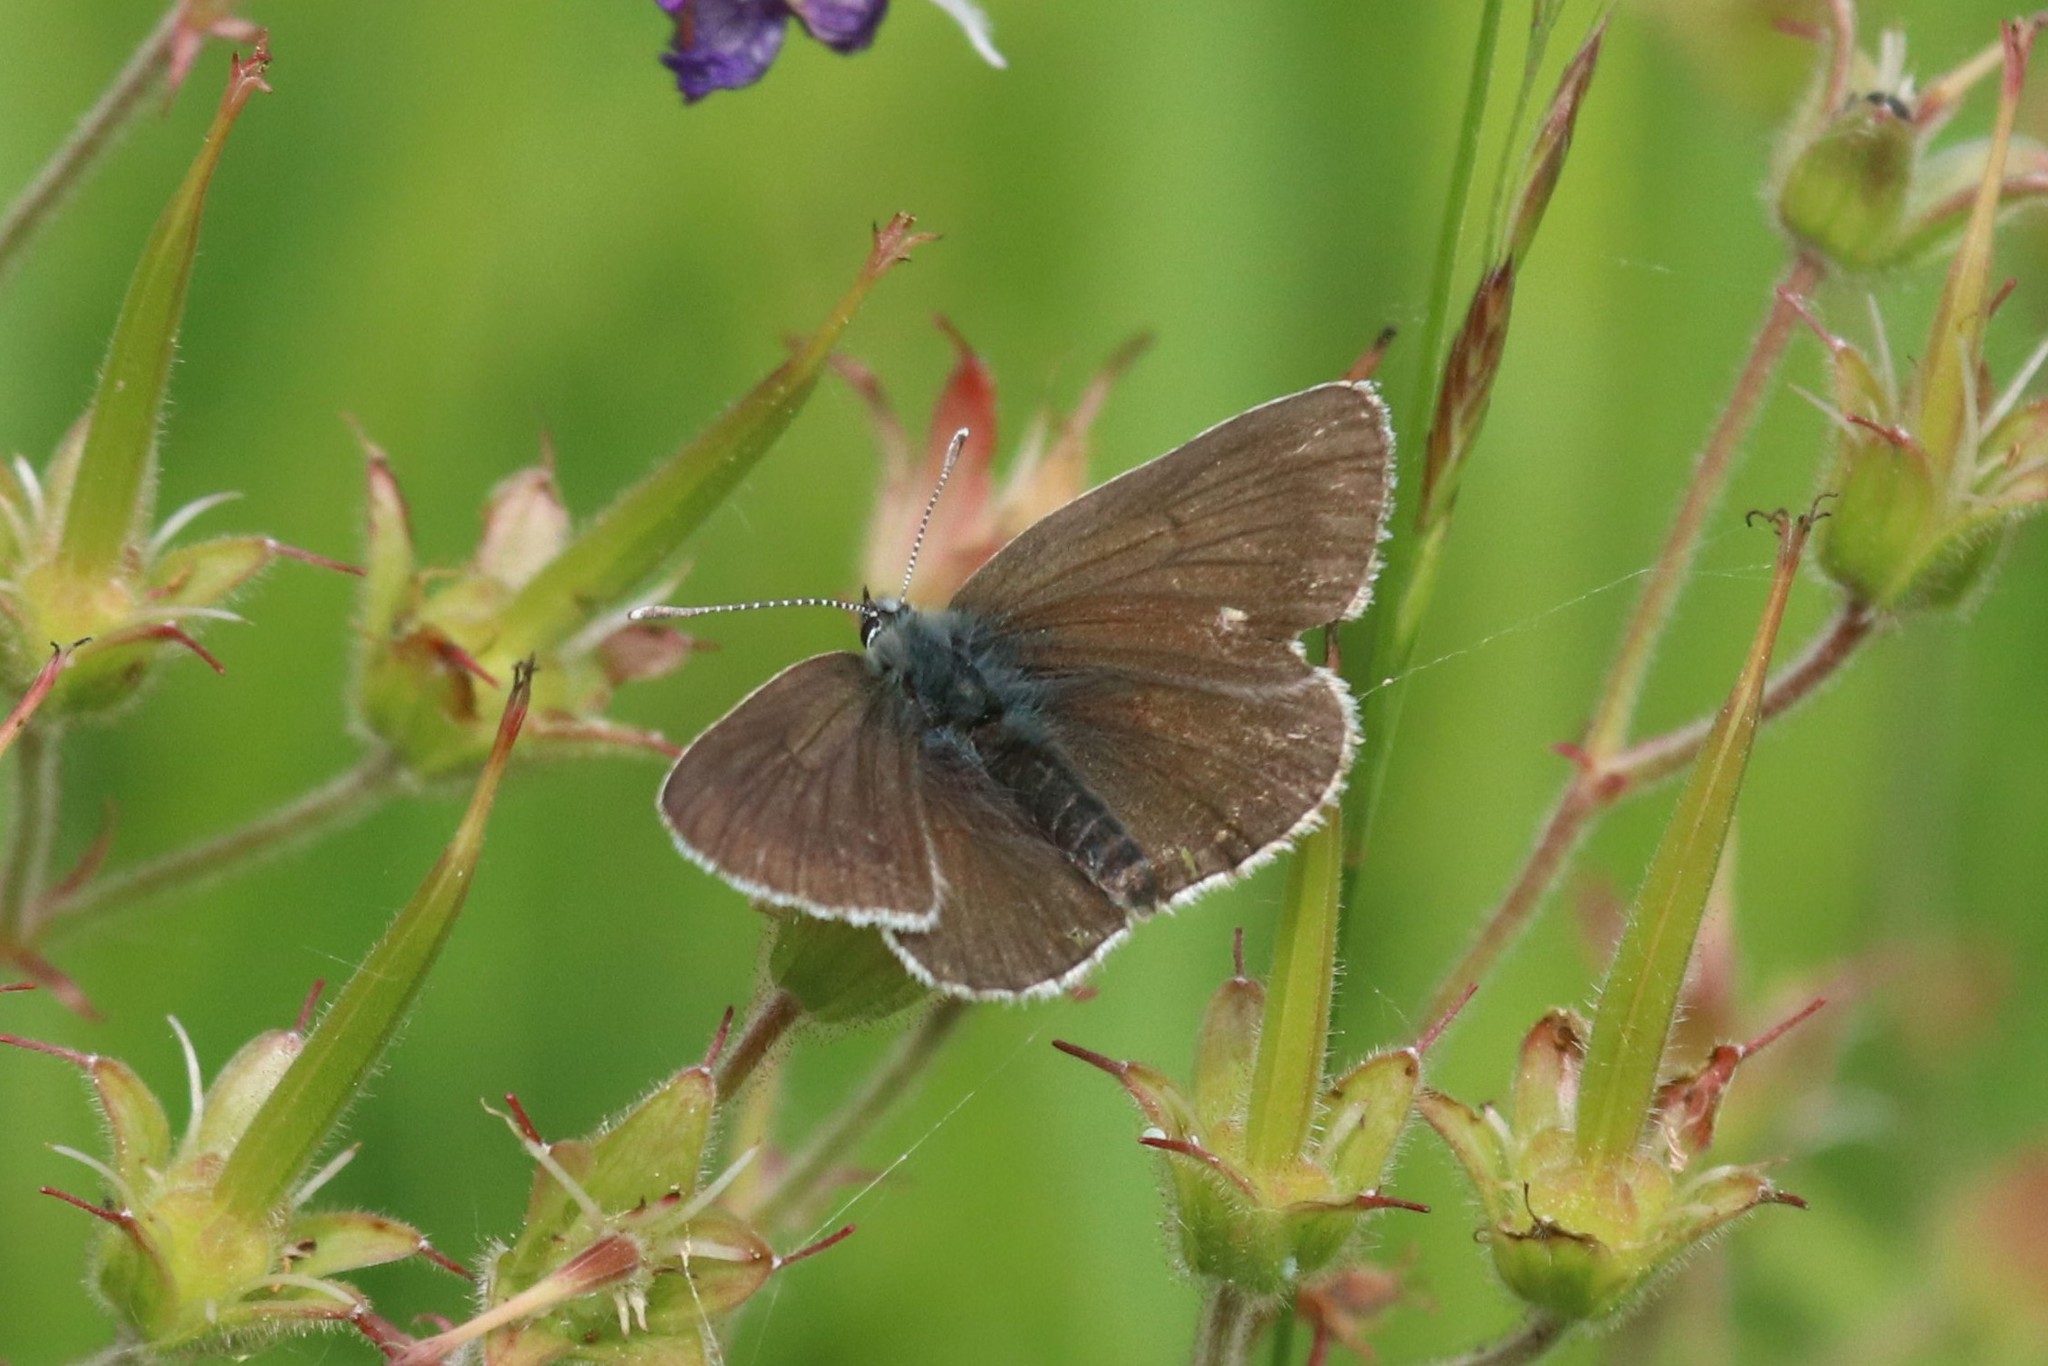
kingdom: Animalia
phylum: Arthropoda
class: Insecta
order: Lepidoptera
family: Lycaenidae
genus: Eumedonia
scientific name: Eumedonia eumedon
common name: Geranium argus
